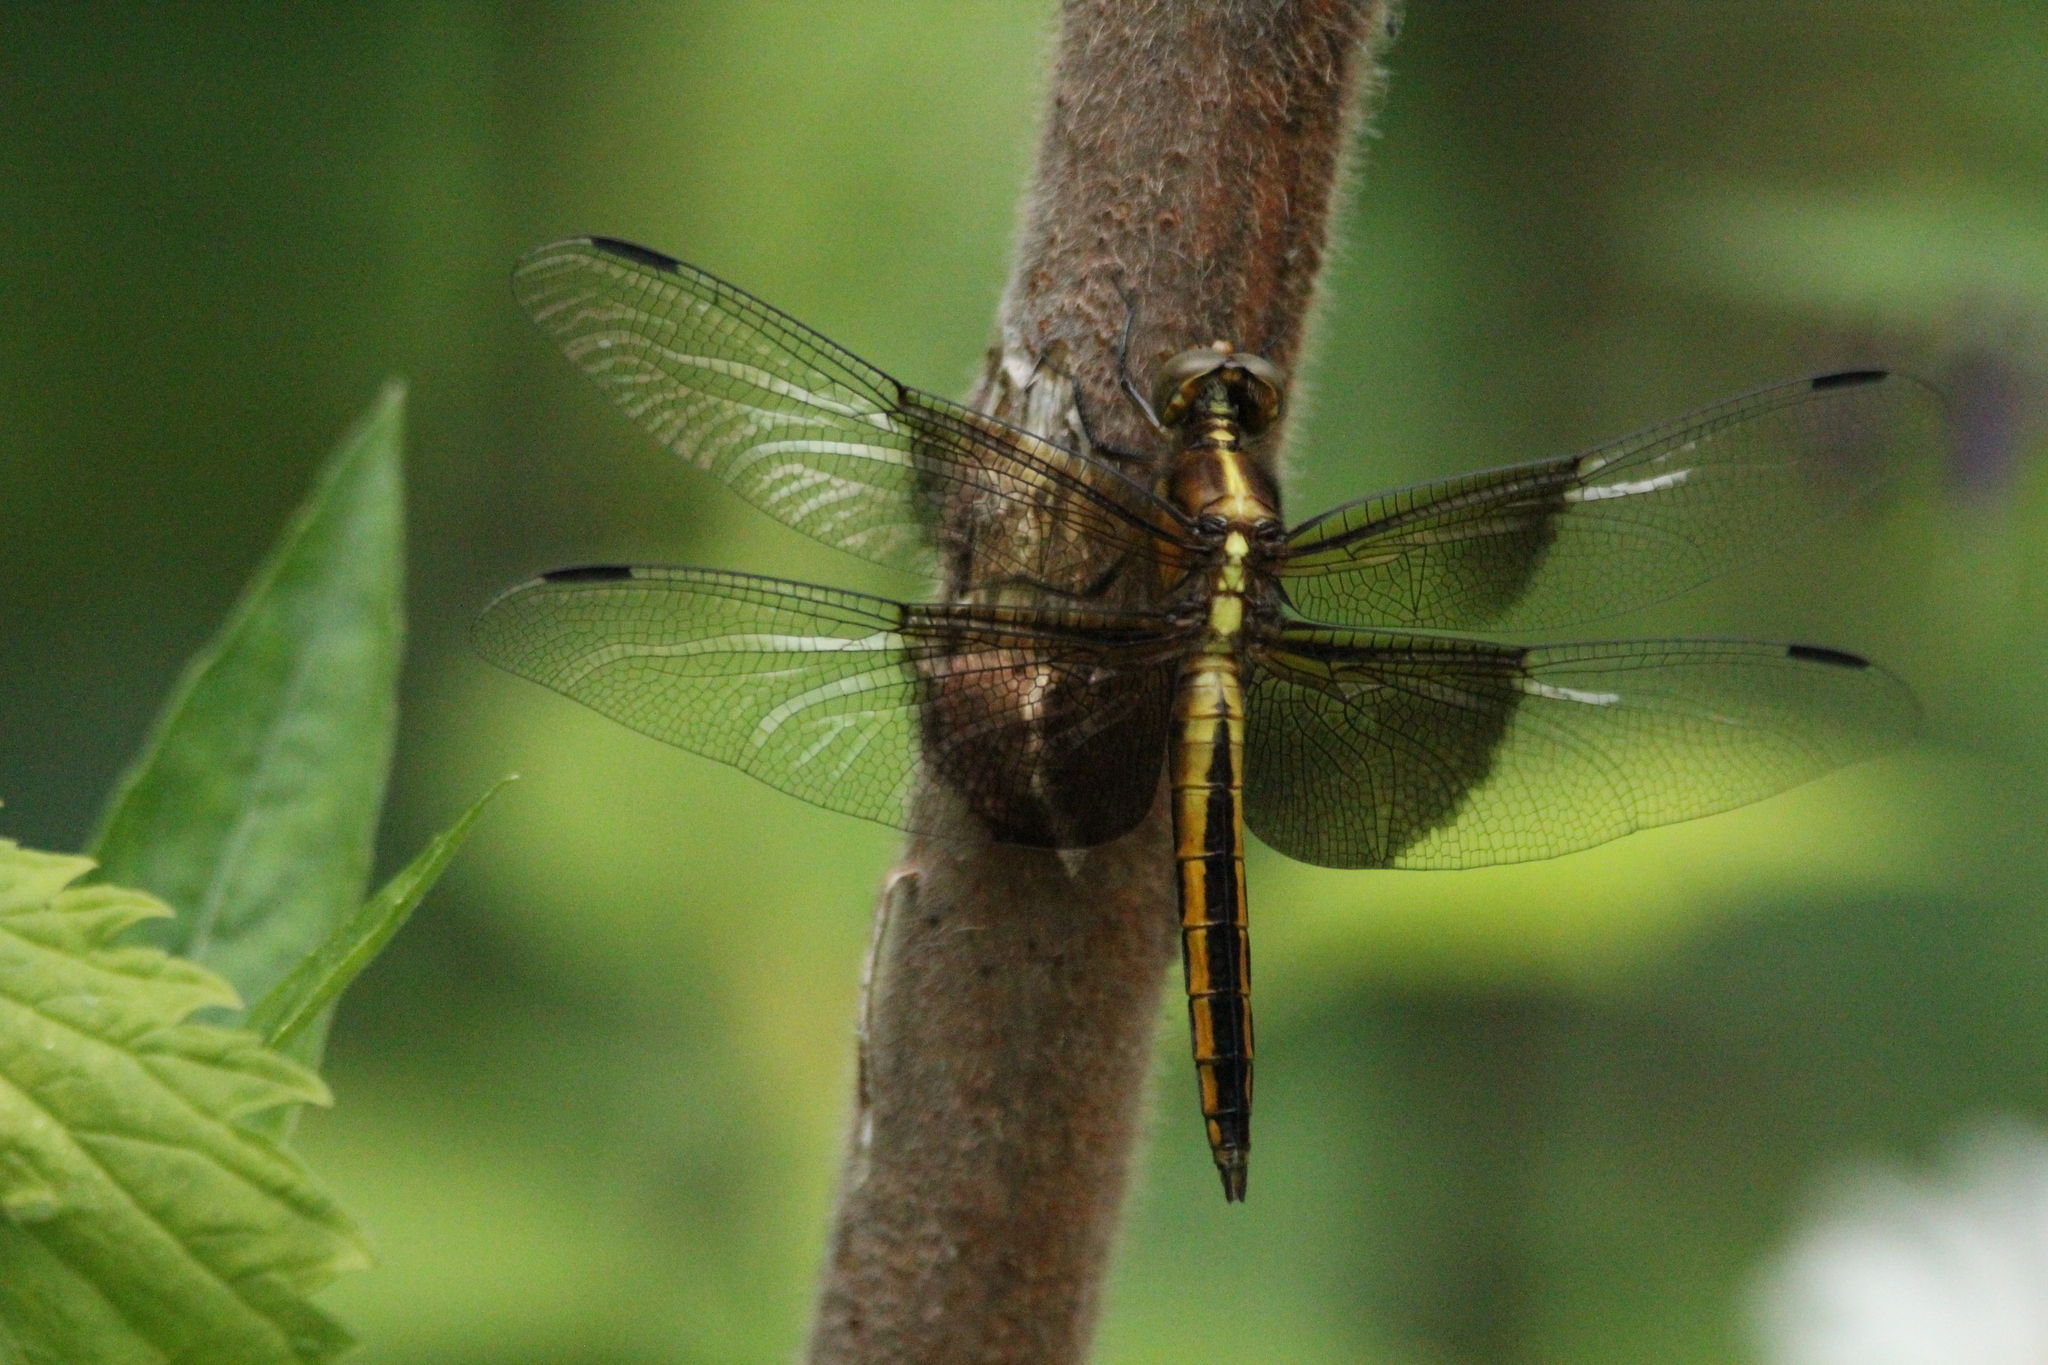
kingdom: Animalia
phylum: Arthropoda
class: Insecta
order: Odonata
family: Libellulidae
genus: Libellula
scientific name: Libellula luctuosa
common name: Widow skimmer
